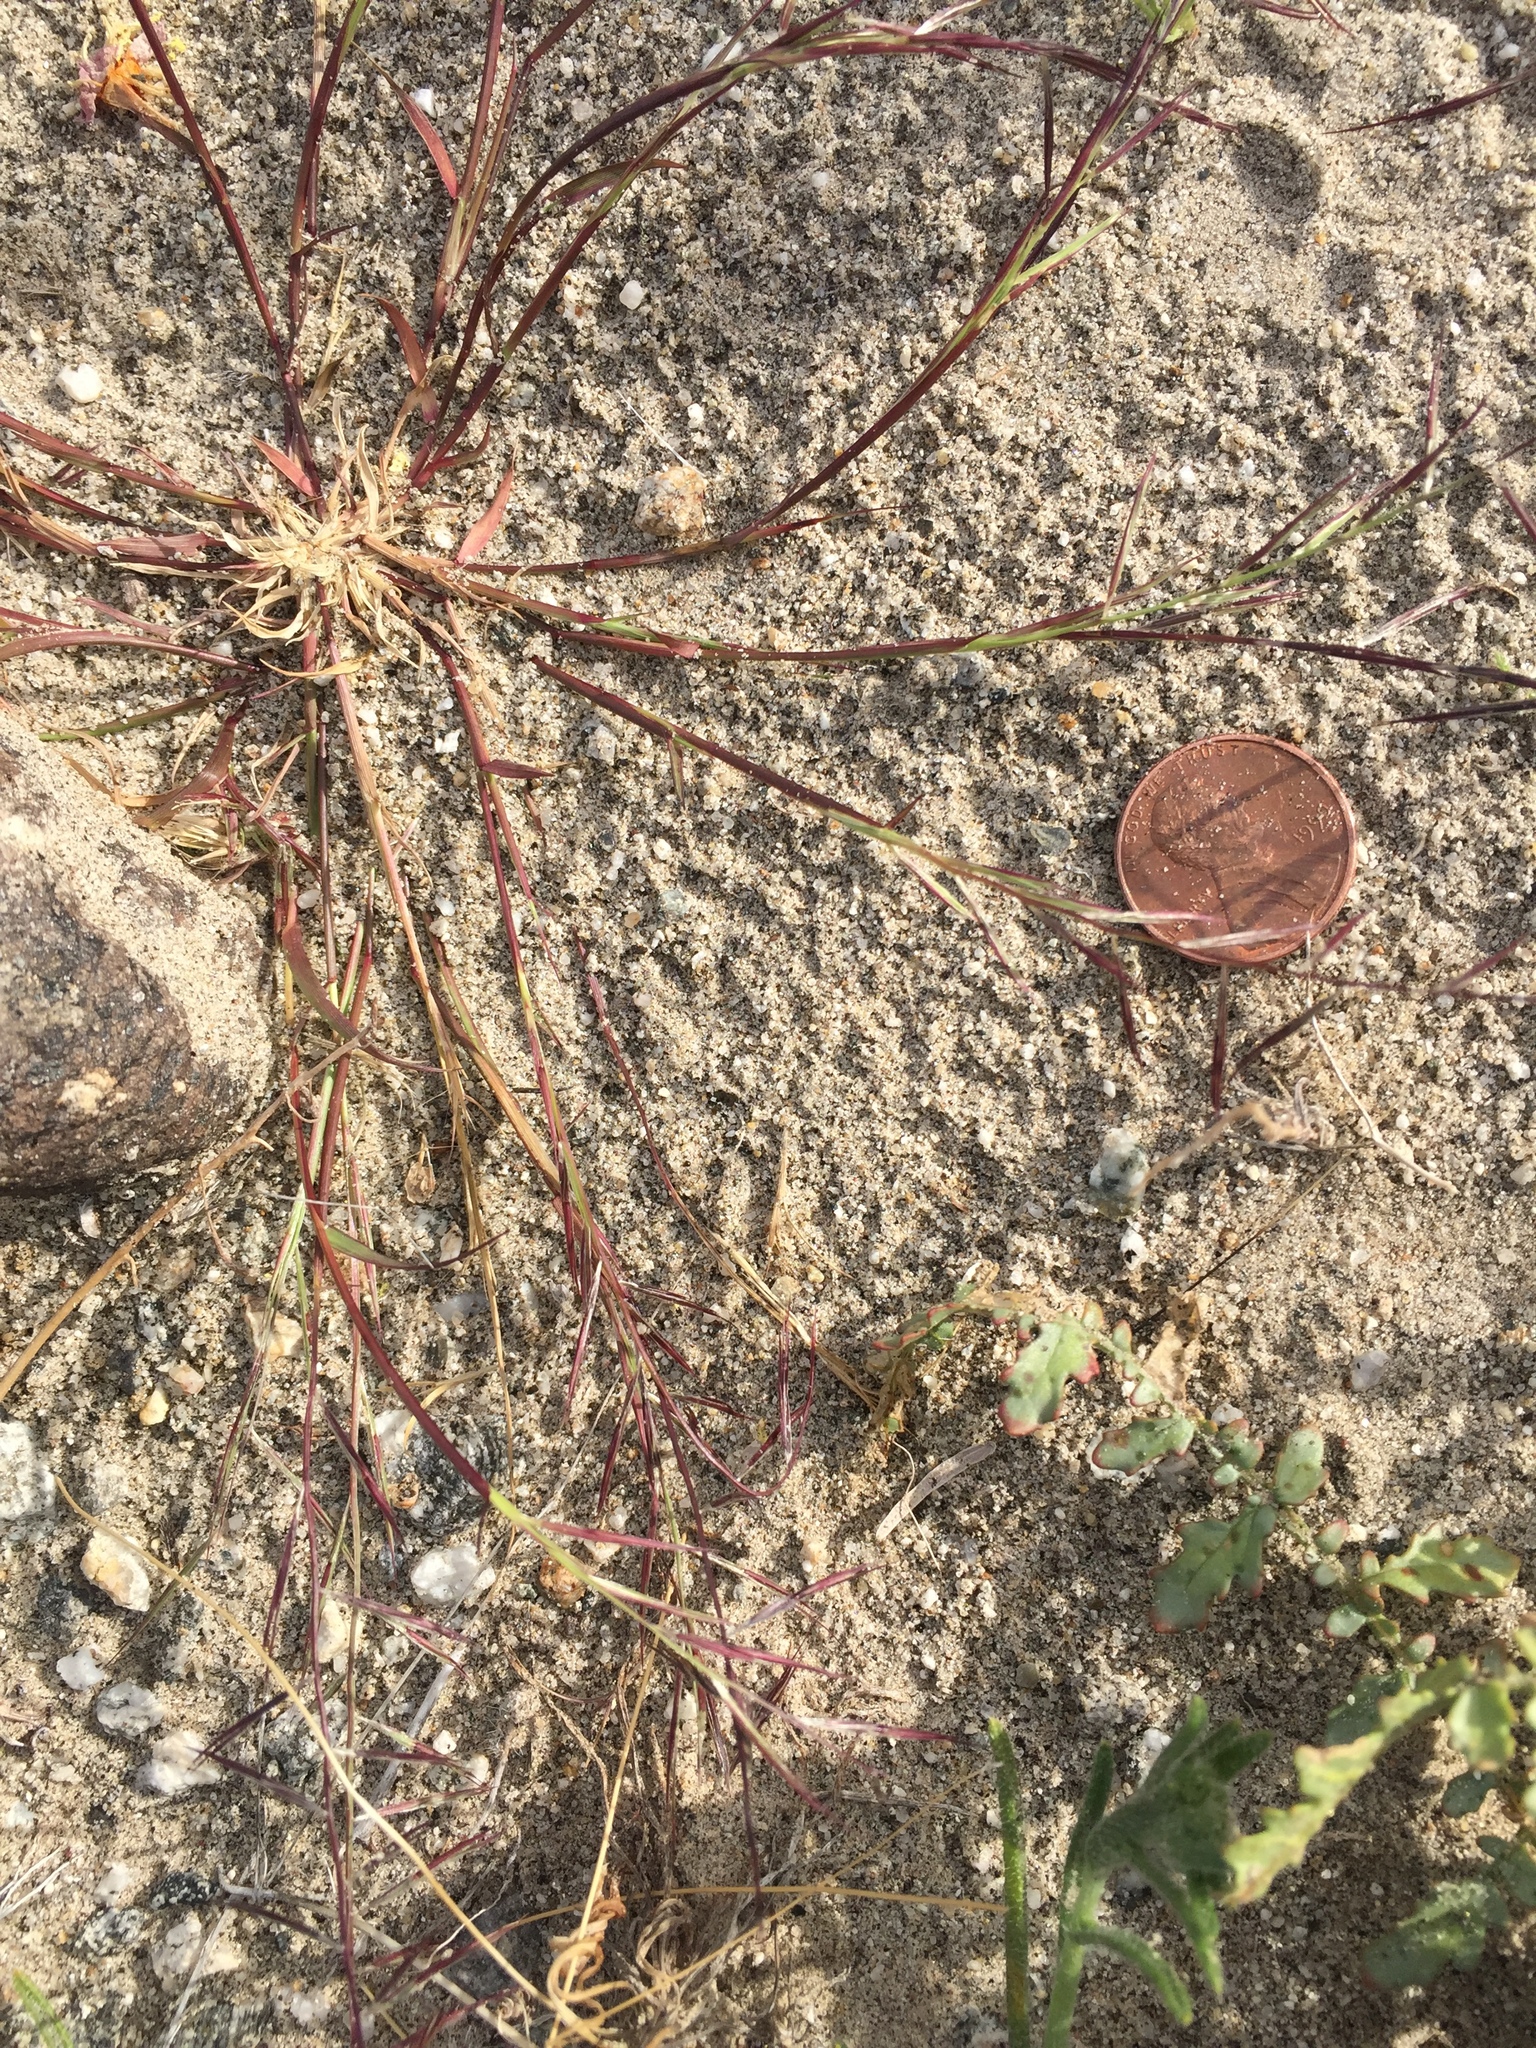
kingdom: Plantae
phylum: Tracheophyta
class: Liliopsida
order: Poales
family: Poaceae
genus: Bouteloua
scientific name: Bouteloua aristidoides
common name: Needle grama
